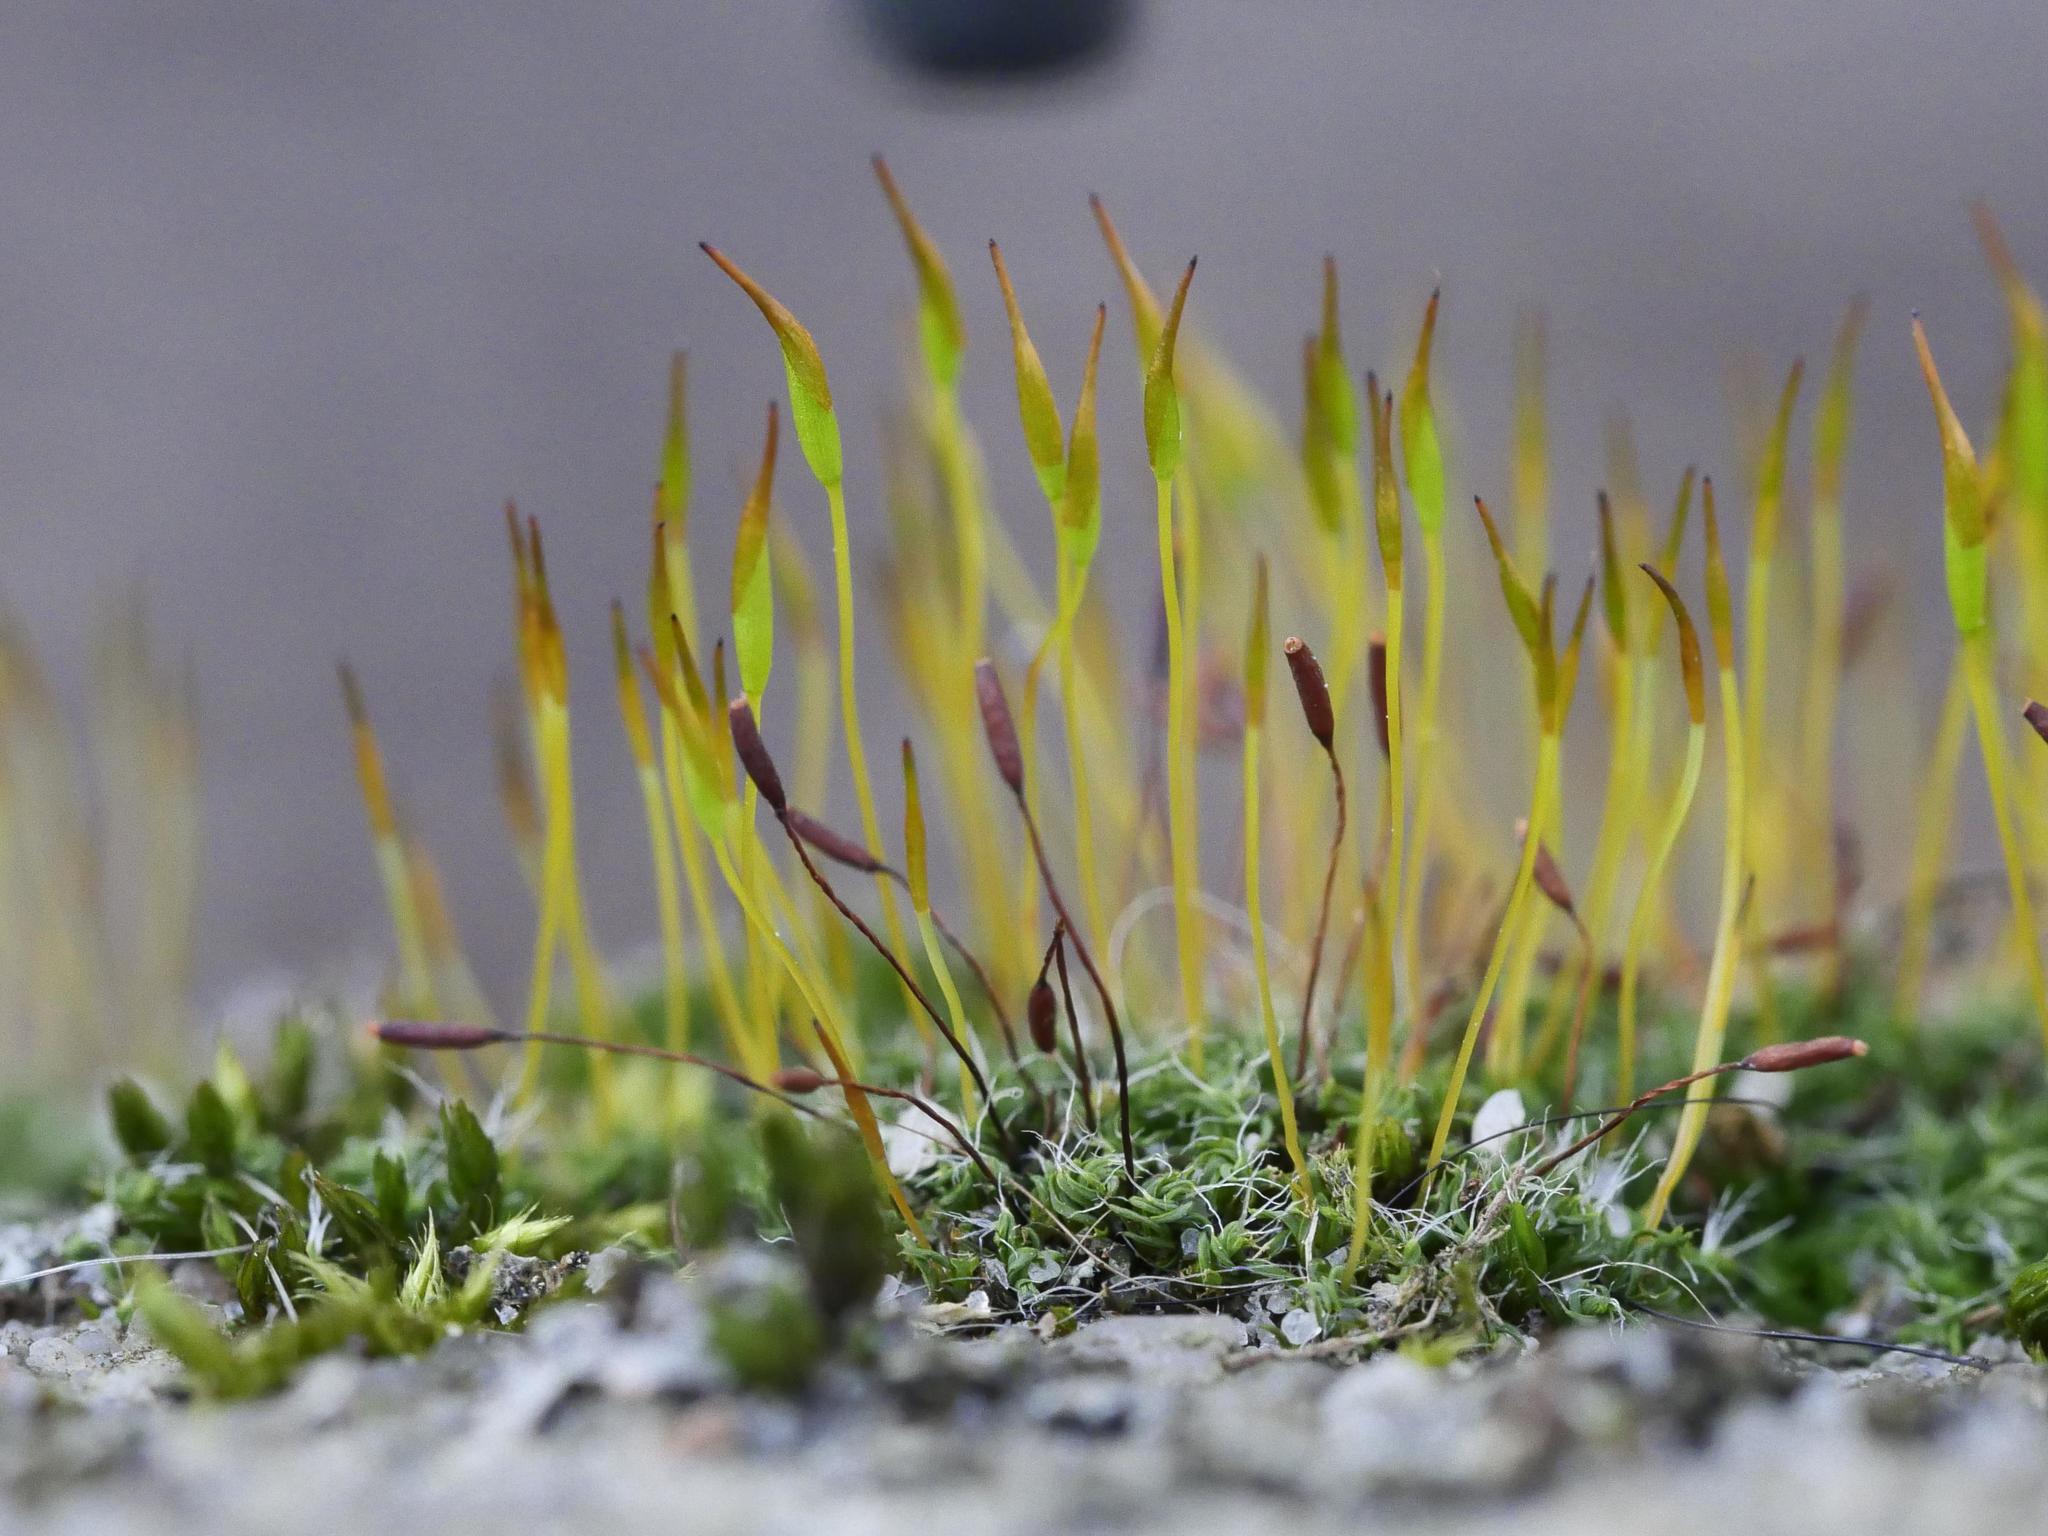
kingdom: Plantae
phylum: Bryophyta
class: Bryopsida
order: Pottiales
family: Pottiaceae
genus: Tortula
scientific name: Tortula muralis
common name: Wall screw-moss
